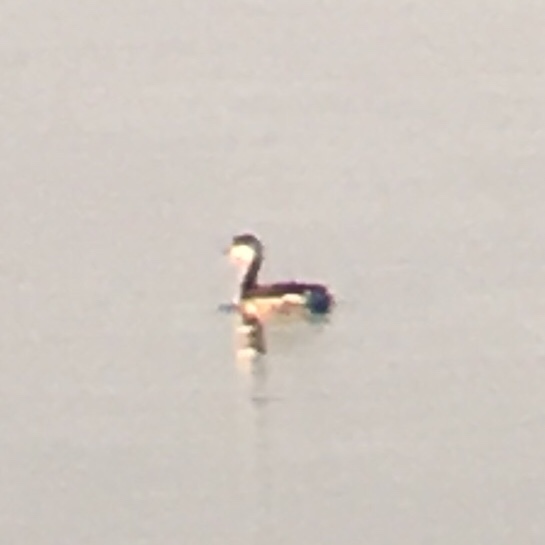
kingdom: Animalia
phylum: Chordata
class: Aves
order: Podicipediformes
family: Podicipedidae
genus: Podiceps
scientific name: Podiceps auritus
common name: Horned grebe
